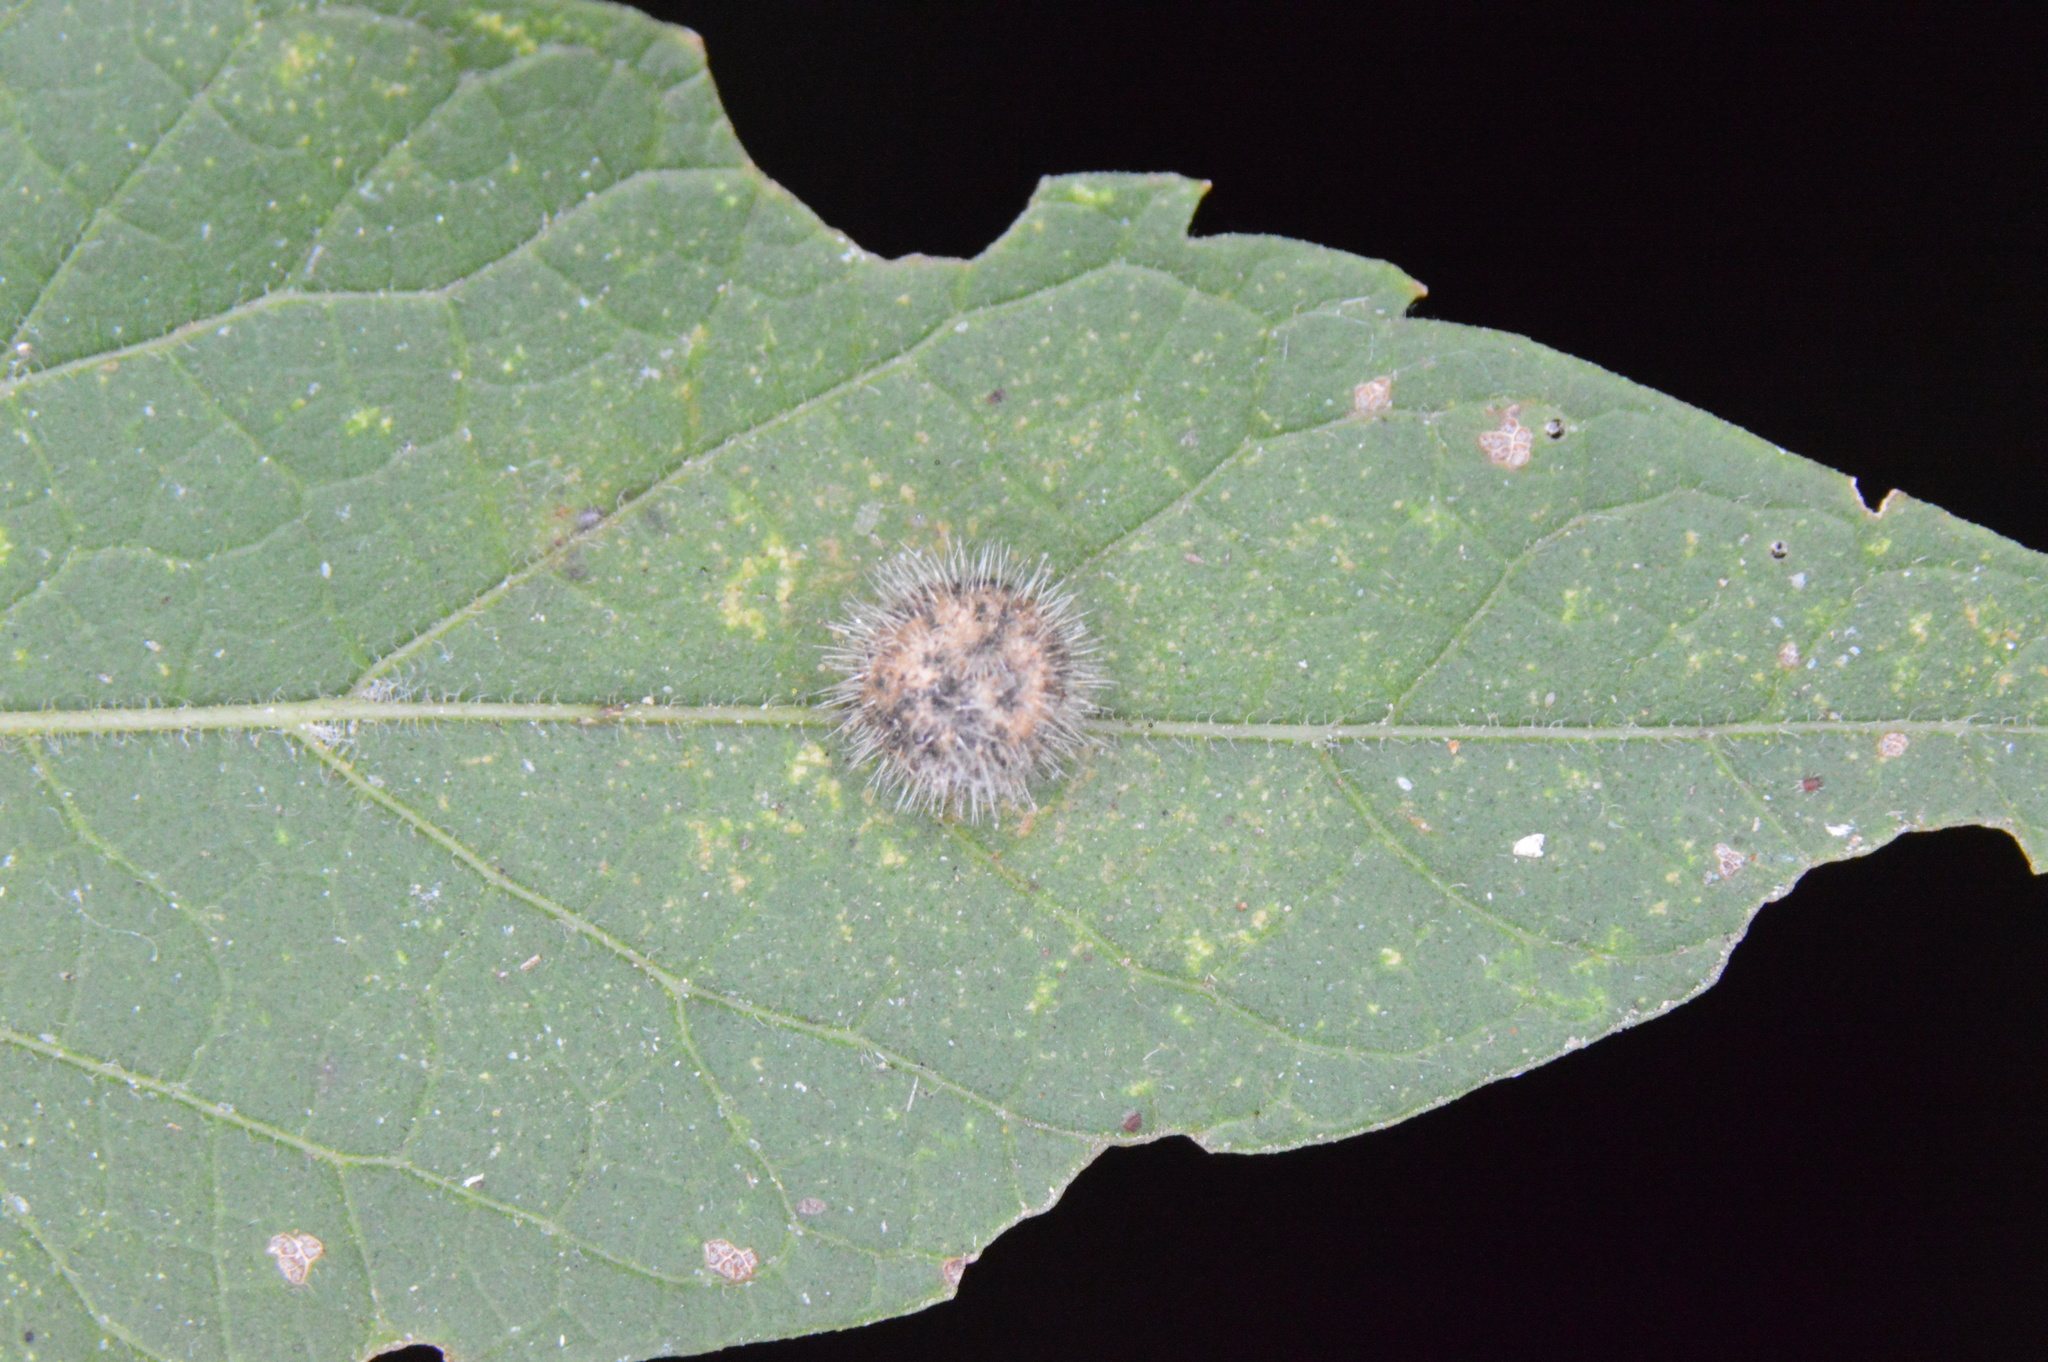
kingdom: Animalia
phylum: Arthropoda
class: Insecta
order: Diptera
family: Cecidomyiidae
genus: Celticecis
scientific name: Celticecis pubescens
